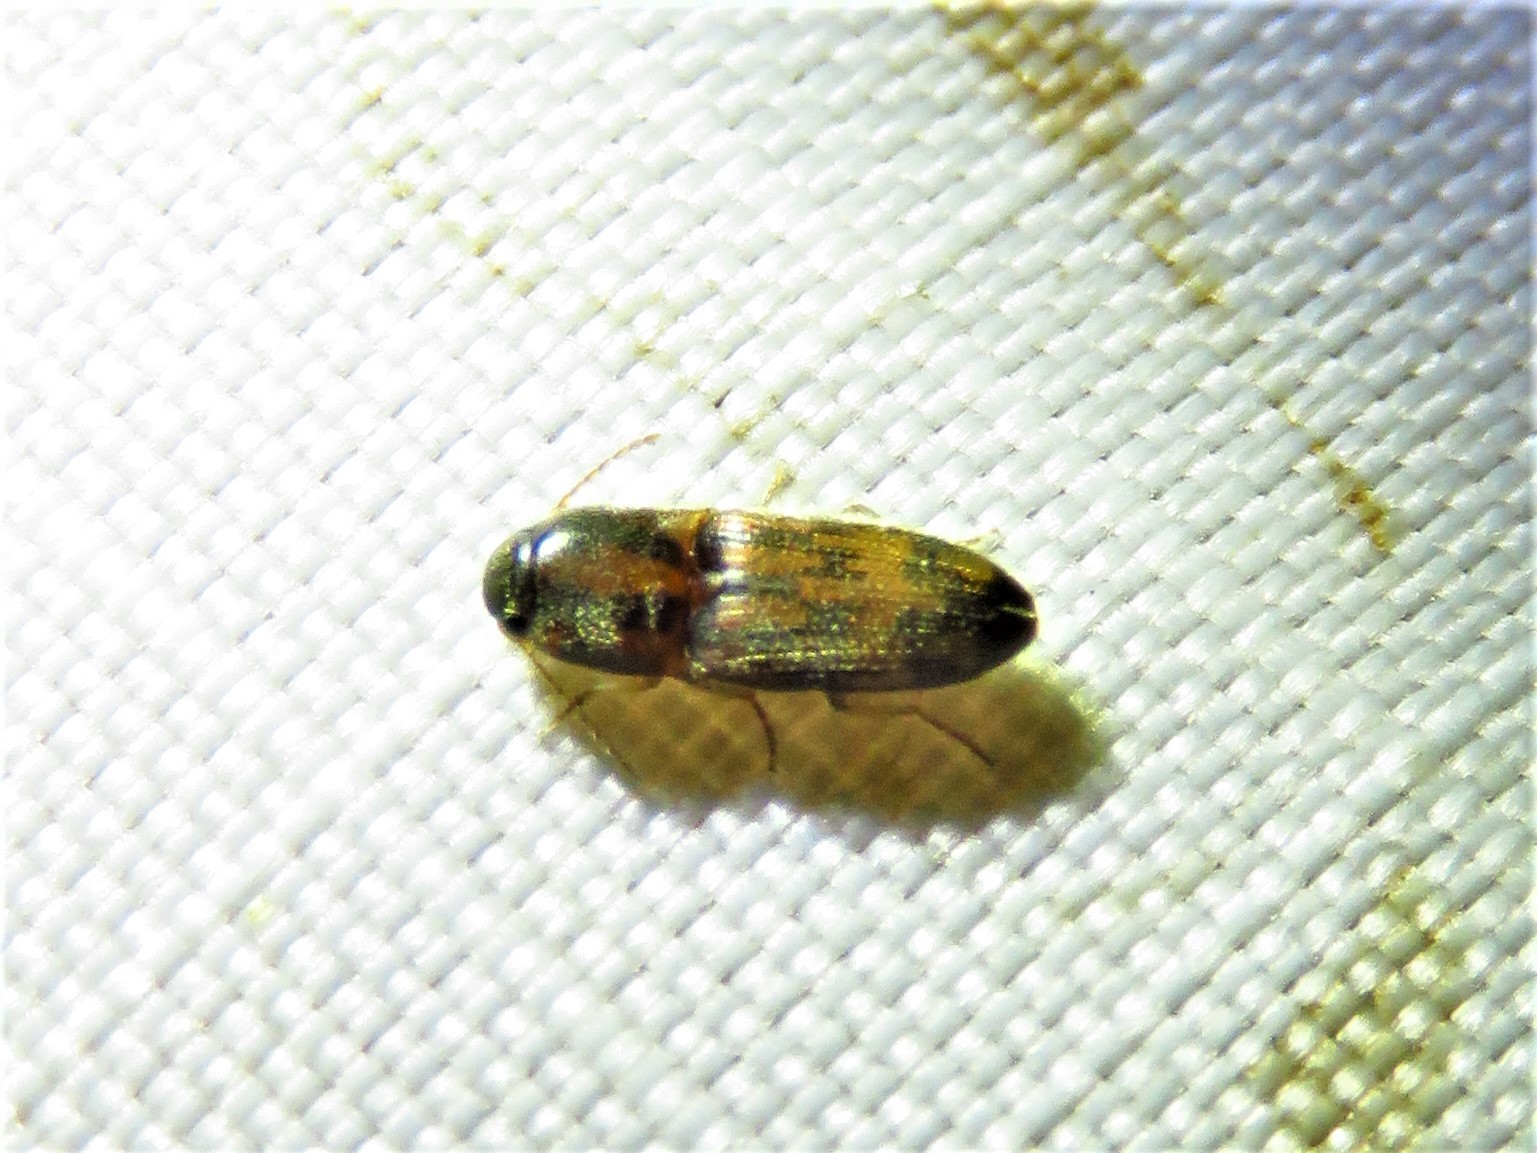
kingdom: Animalia
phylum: Arthropoda
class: Insecta
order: Coleoptera
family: Elateridae
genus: Monocrepidius
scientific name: Monocrepidius bellus
